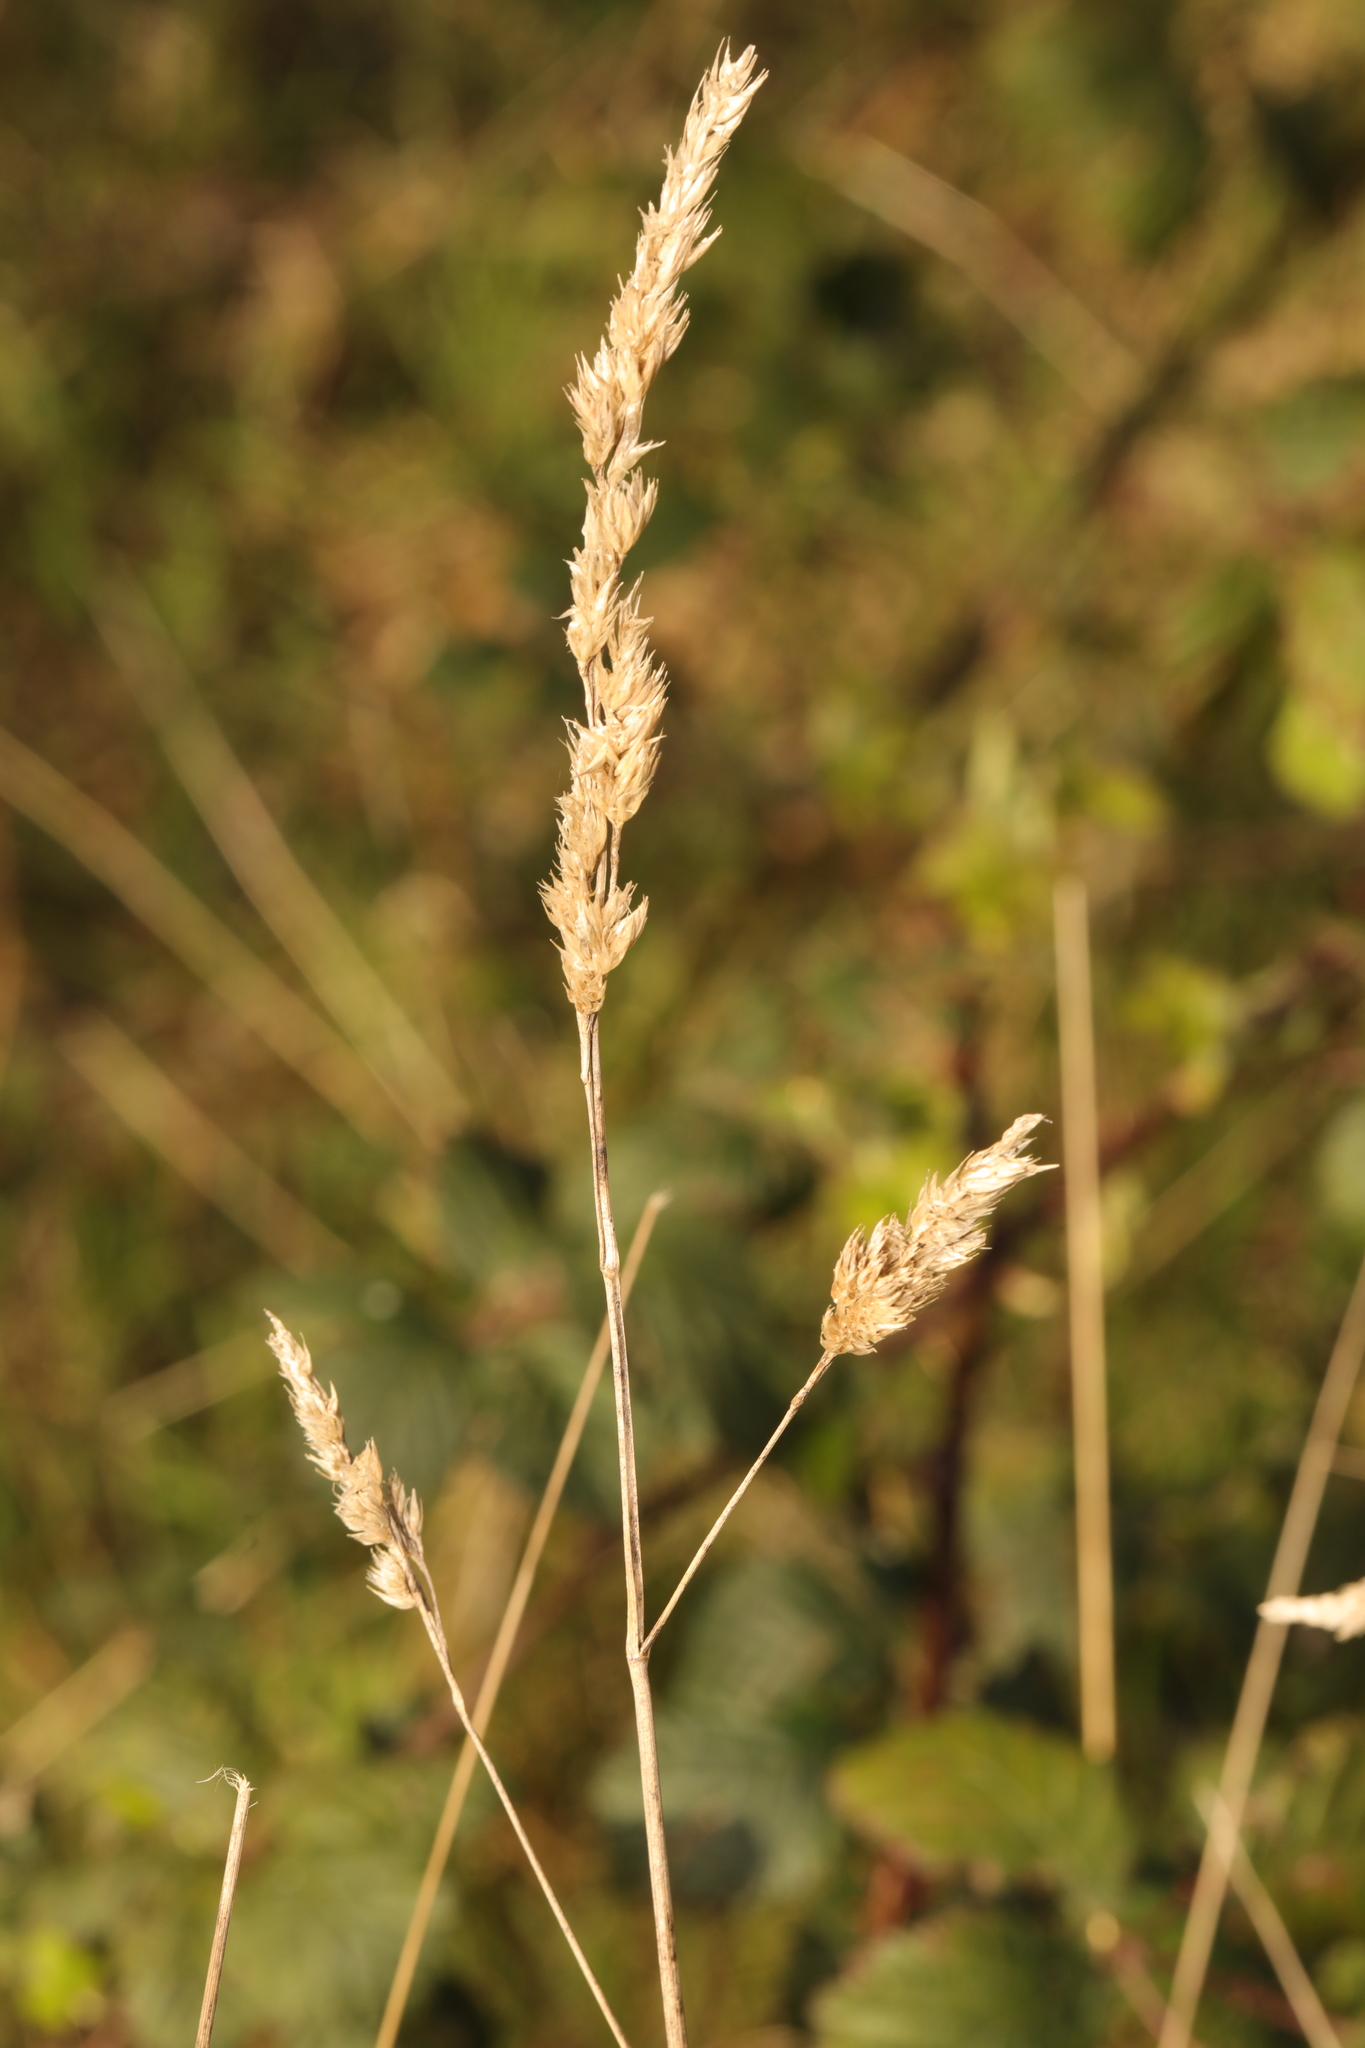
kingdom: Plantae
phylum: Tracheophyta
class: Liliopsida
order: Poales
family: Poaceae
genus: Dactylis
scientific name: Dactylis glomerata
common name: Orchardgrass
